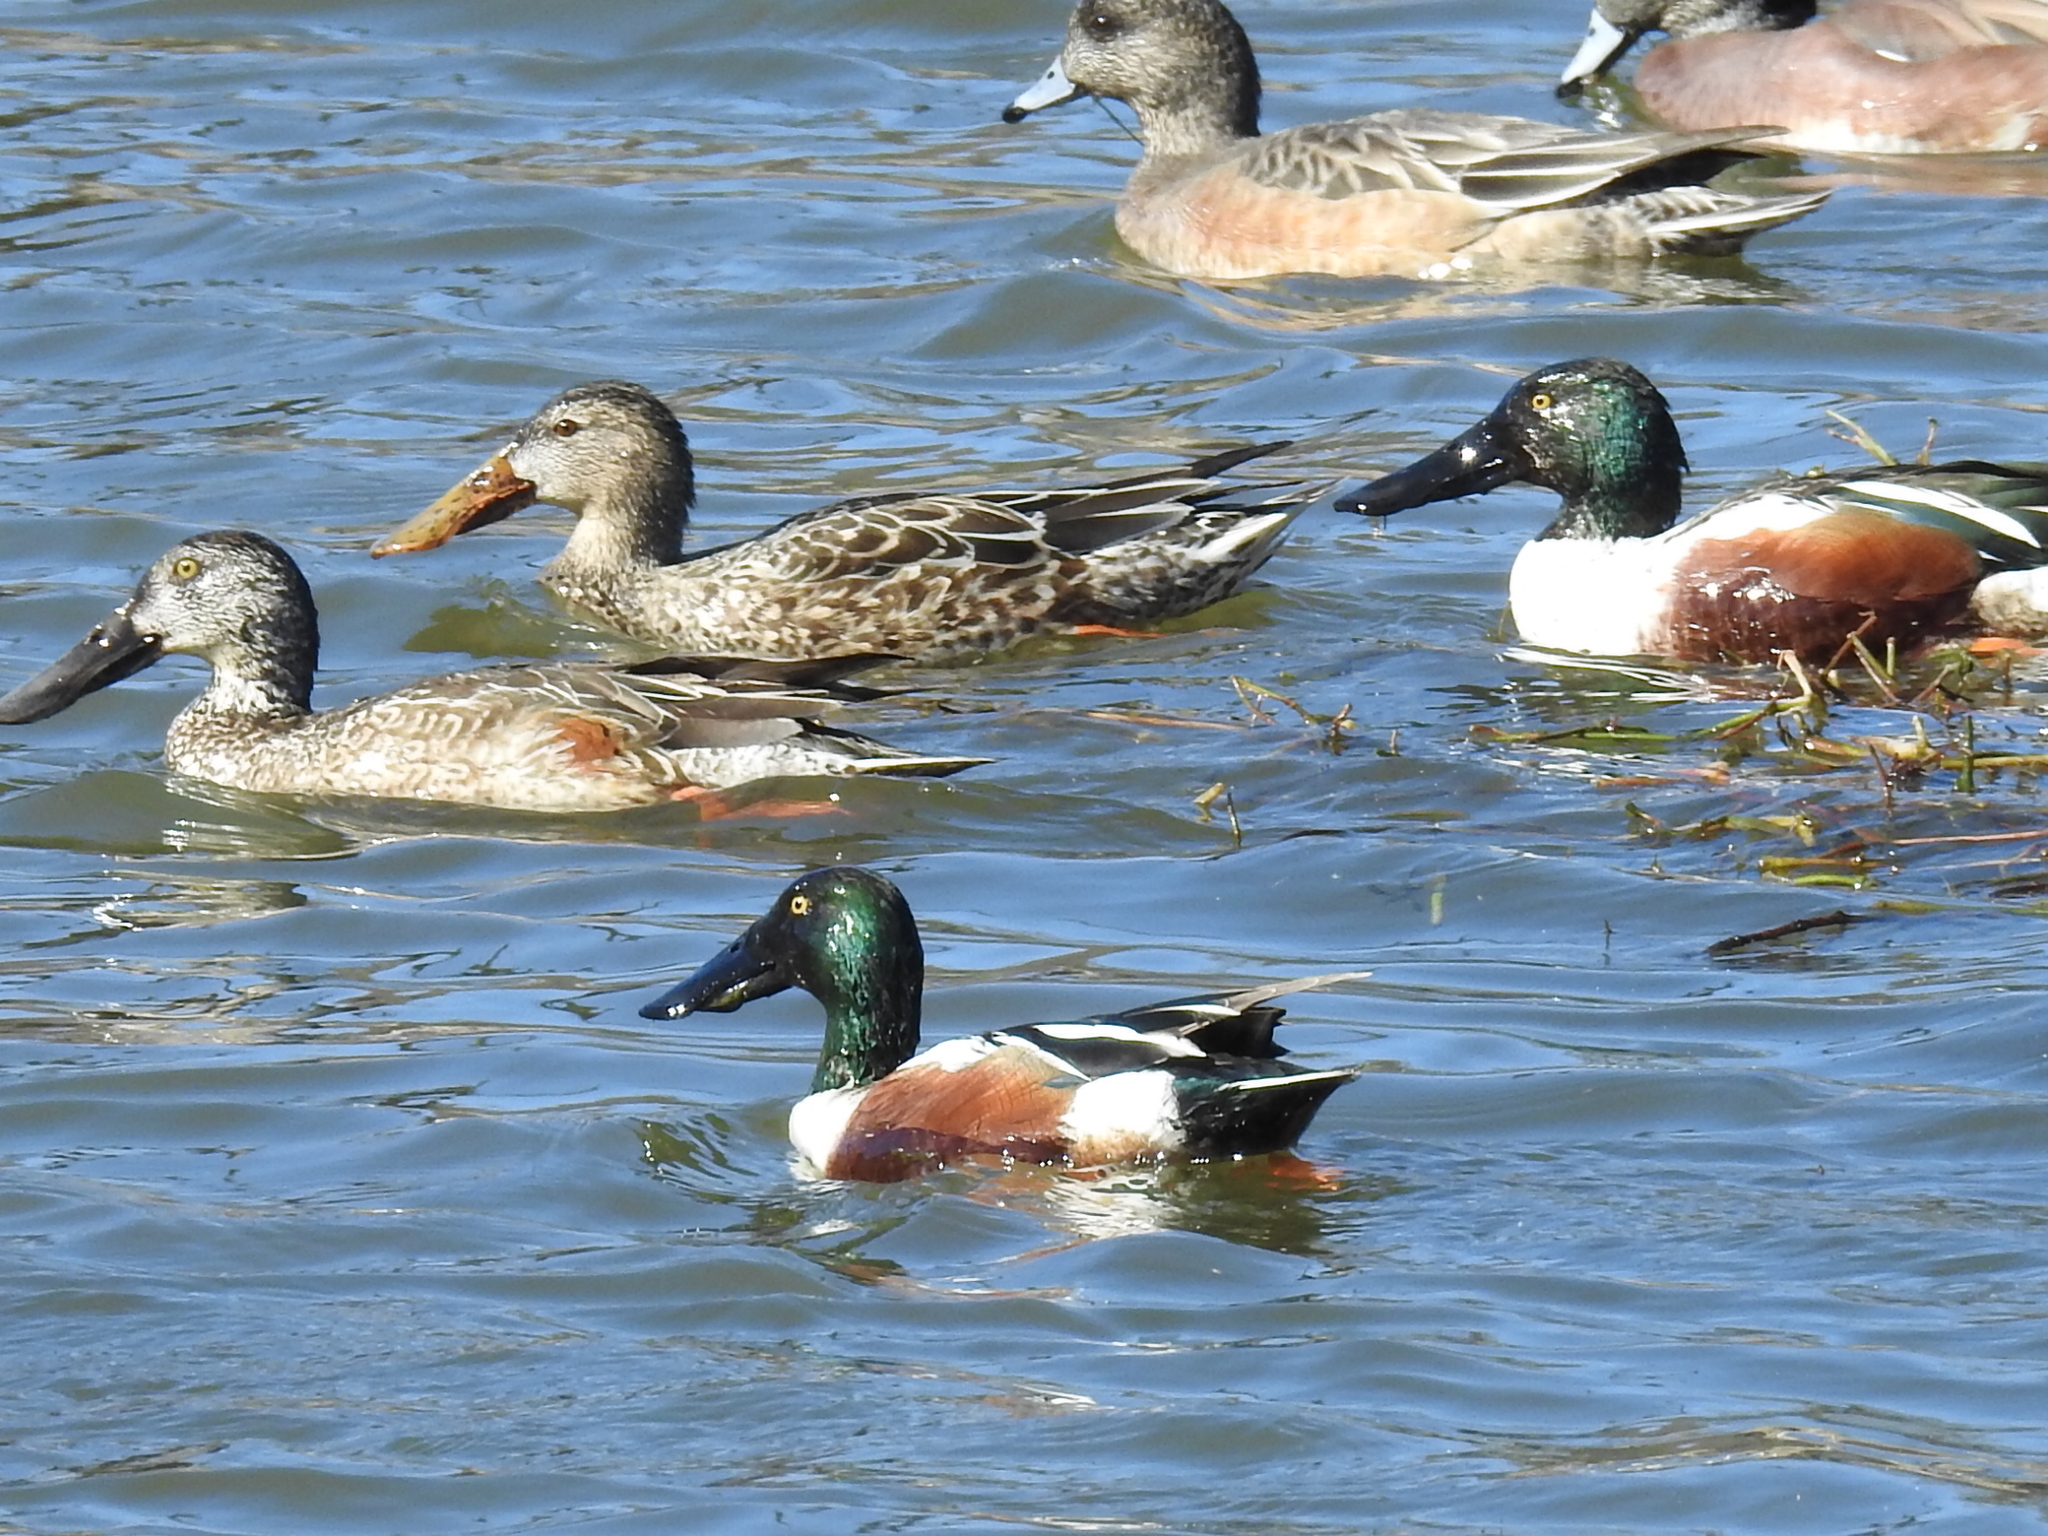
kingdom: Animalia
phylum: Chordata
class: Aves
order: Anseriformes
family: Anatidae
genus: Spatula
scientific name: Spatula clypeata
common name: Northern shoveler
